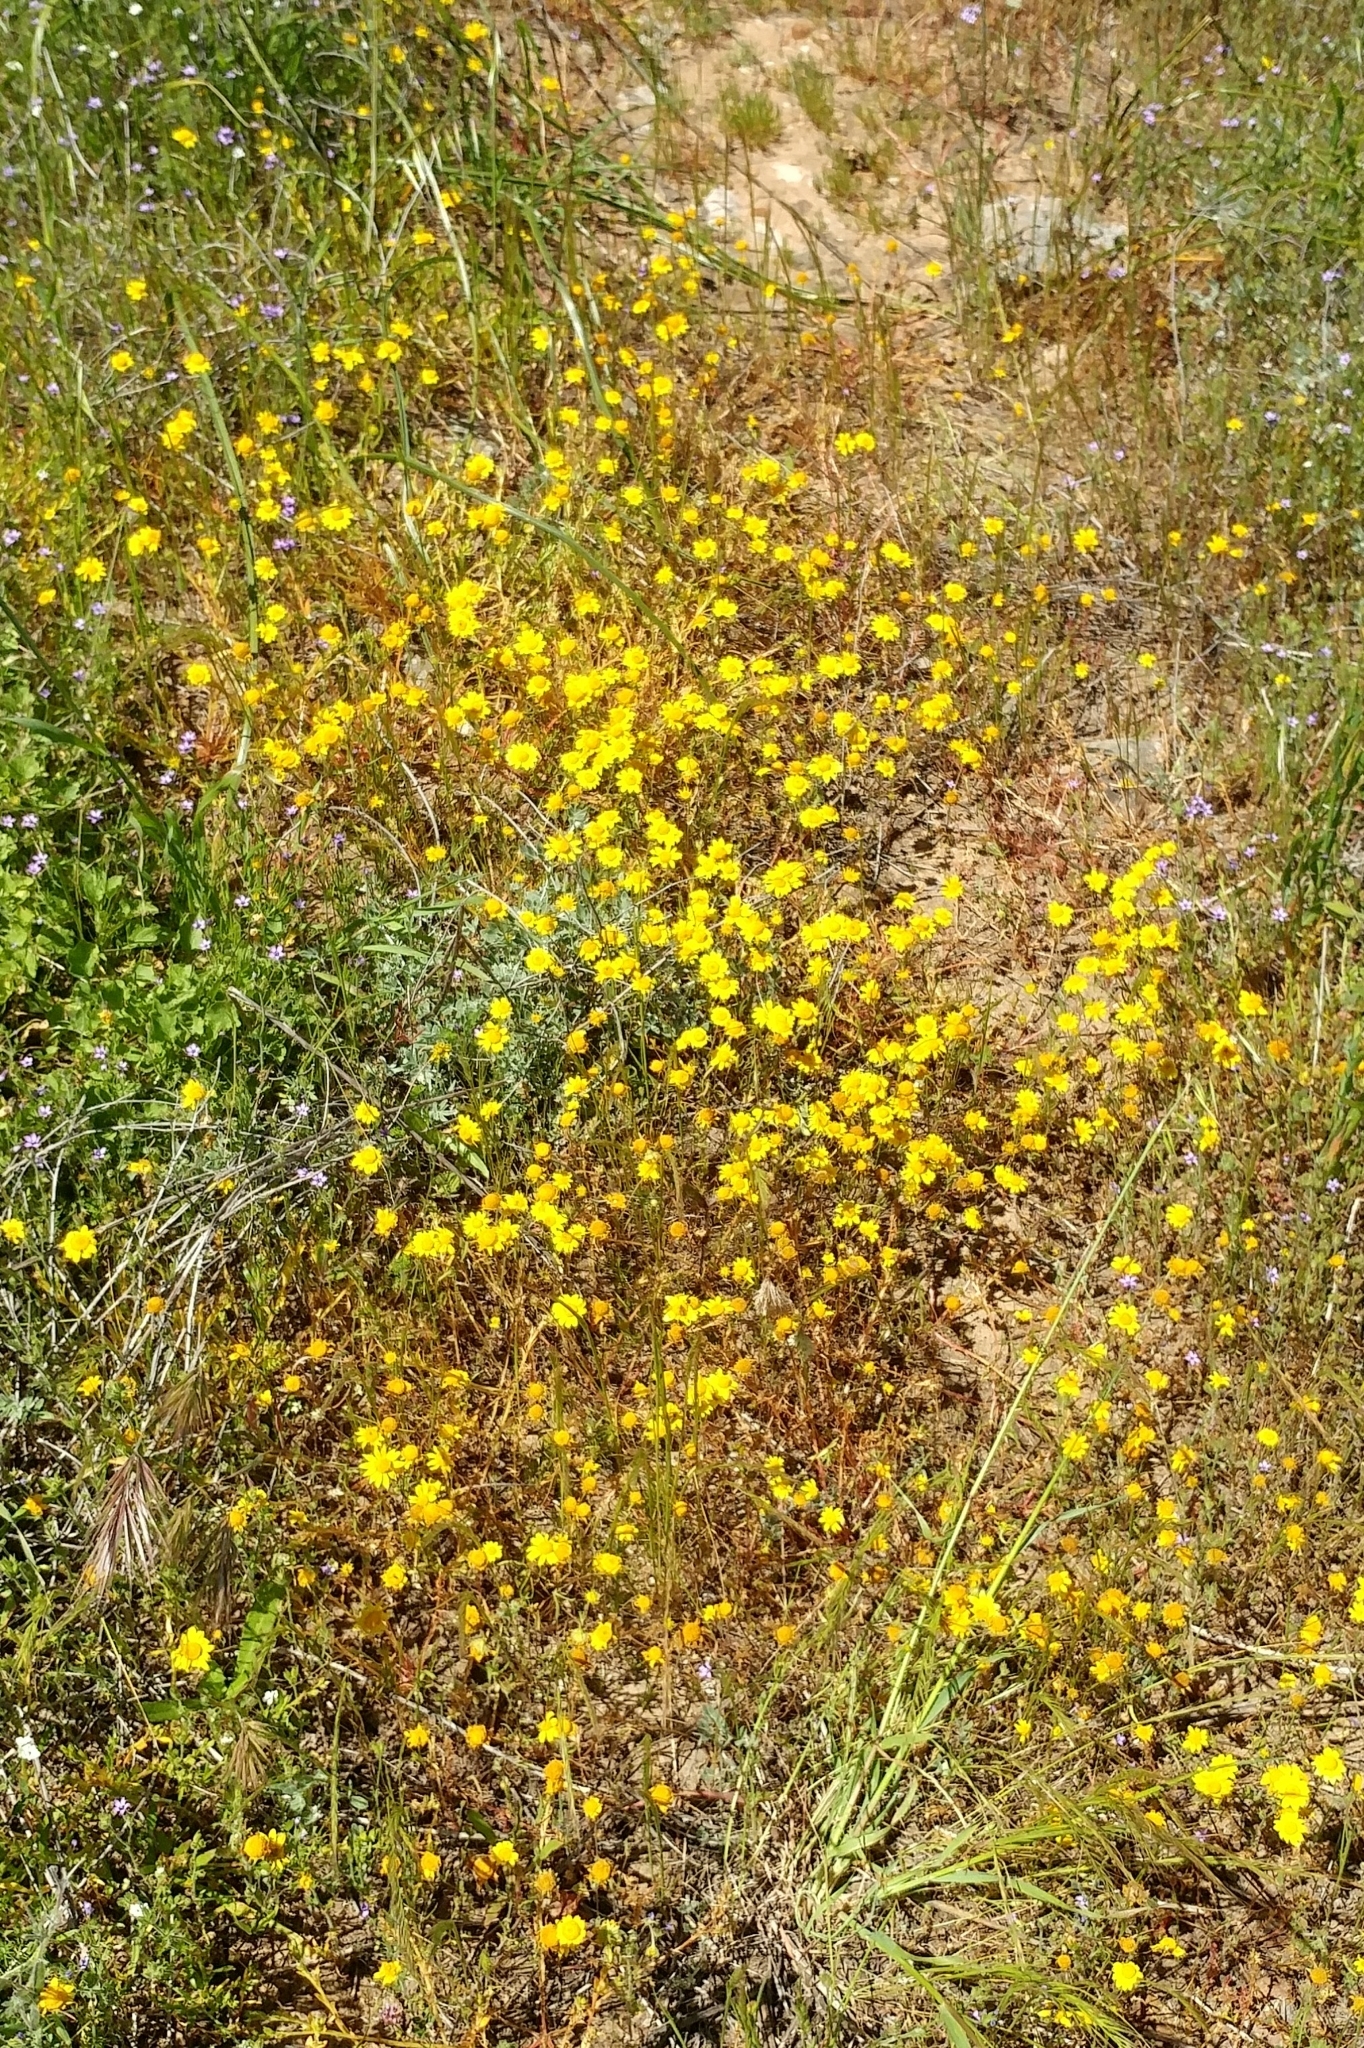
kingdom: Plantae
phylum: Tracheophyta
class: Magnoliopsida
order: Asterales
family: Asteraceae
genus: Lasthenia
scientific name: Lasthenia gracilis
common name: Common goldfields
